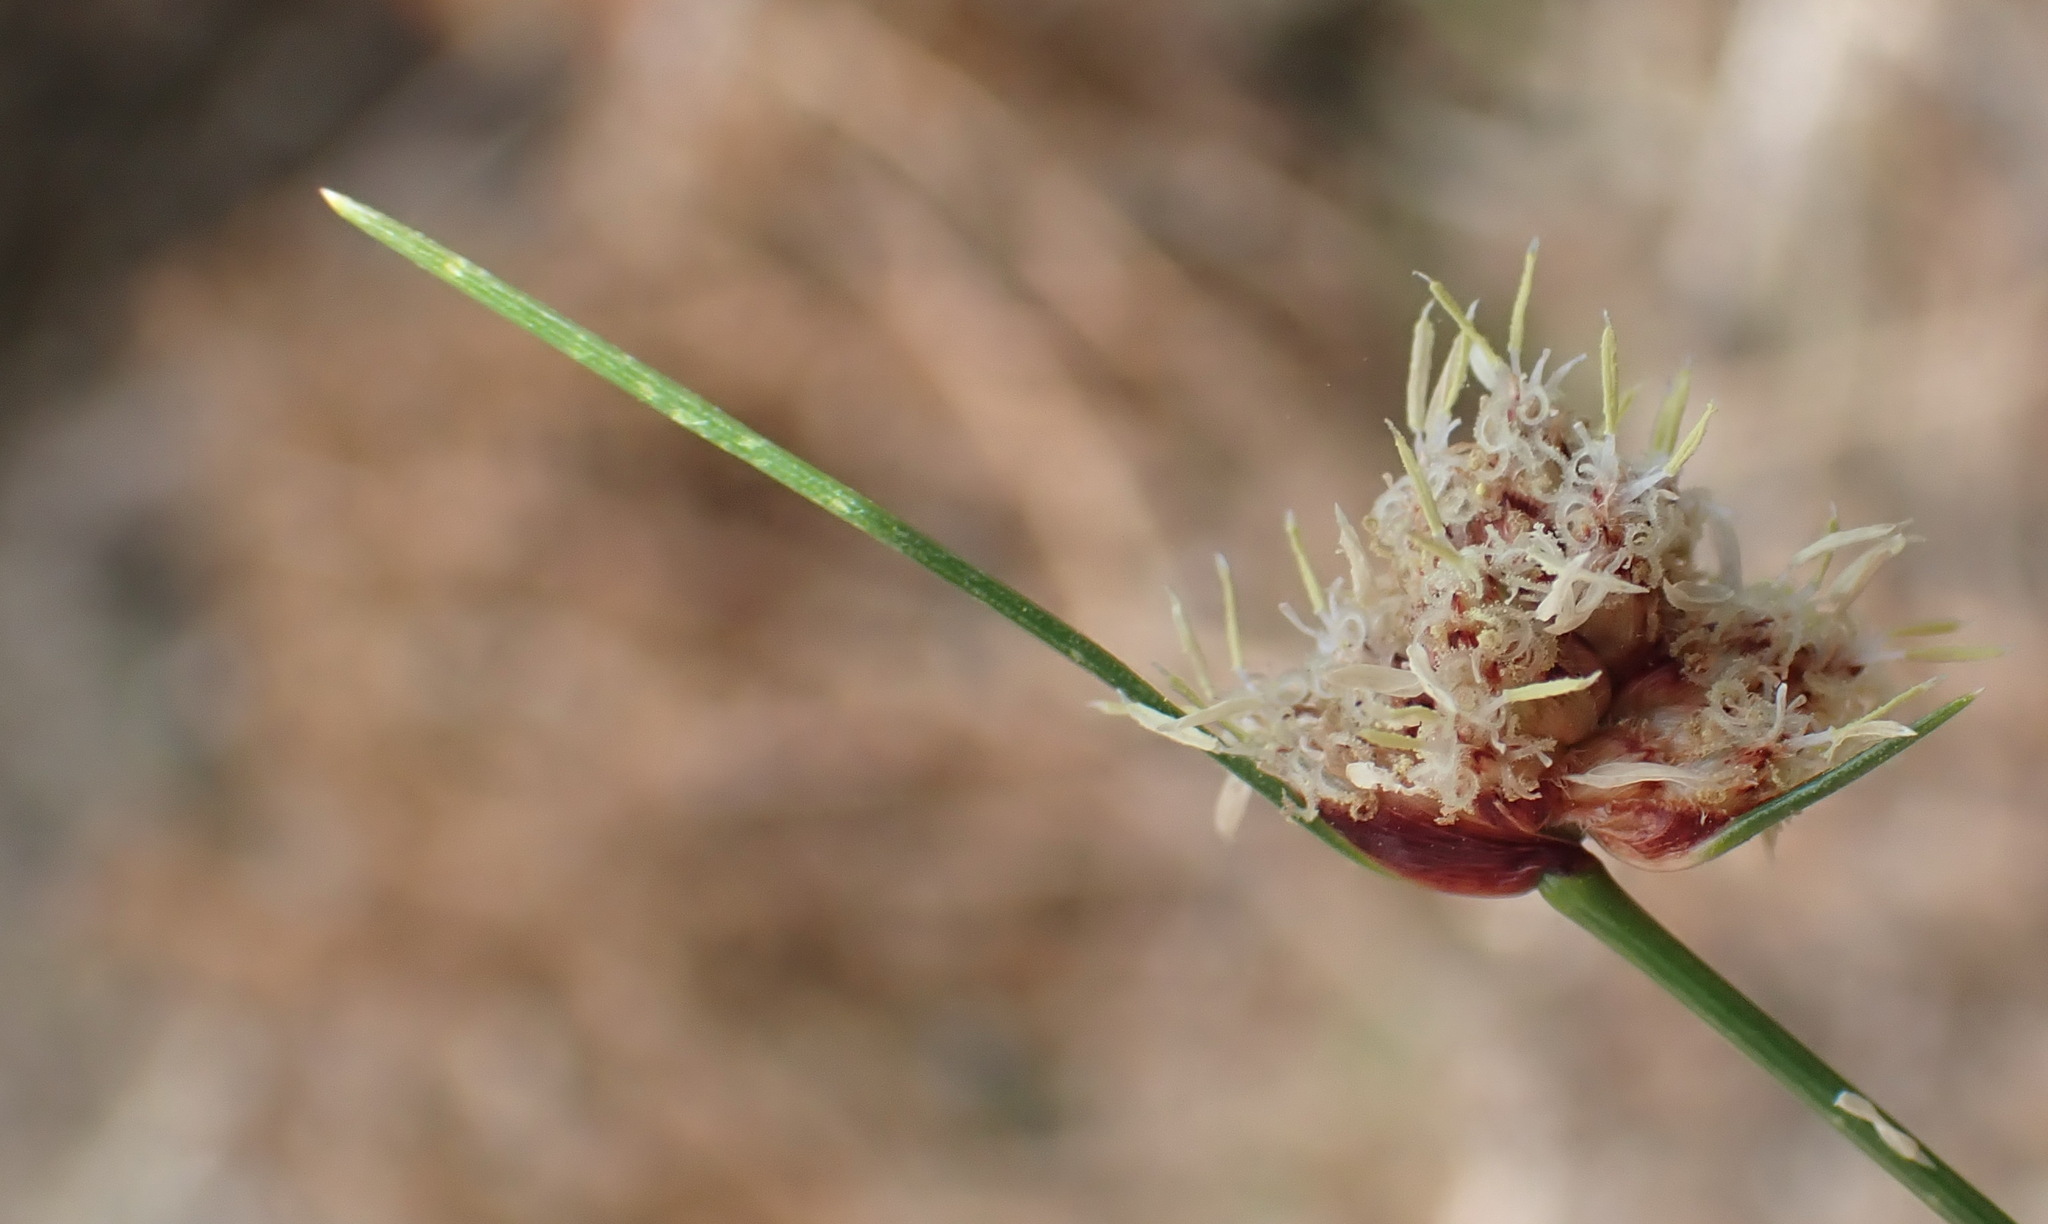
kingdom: Plantae
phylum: Tracheophyta
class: Liliopsida
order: Poales
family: Cyperaceae
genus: Ficinia
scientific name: Ficinia laciniata
